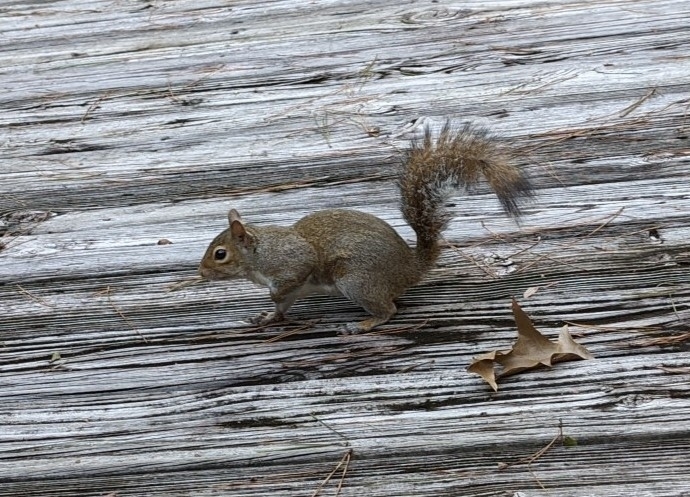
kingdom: Animalia
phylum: Chordata
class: Mammalia
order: Rodentia
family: Sciuridae
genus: Sciurus
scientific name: Sciurus carolinensis
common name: Eastern gray squirrel
